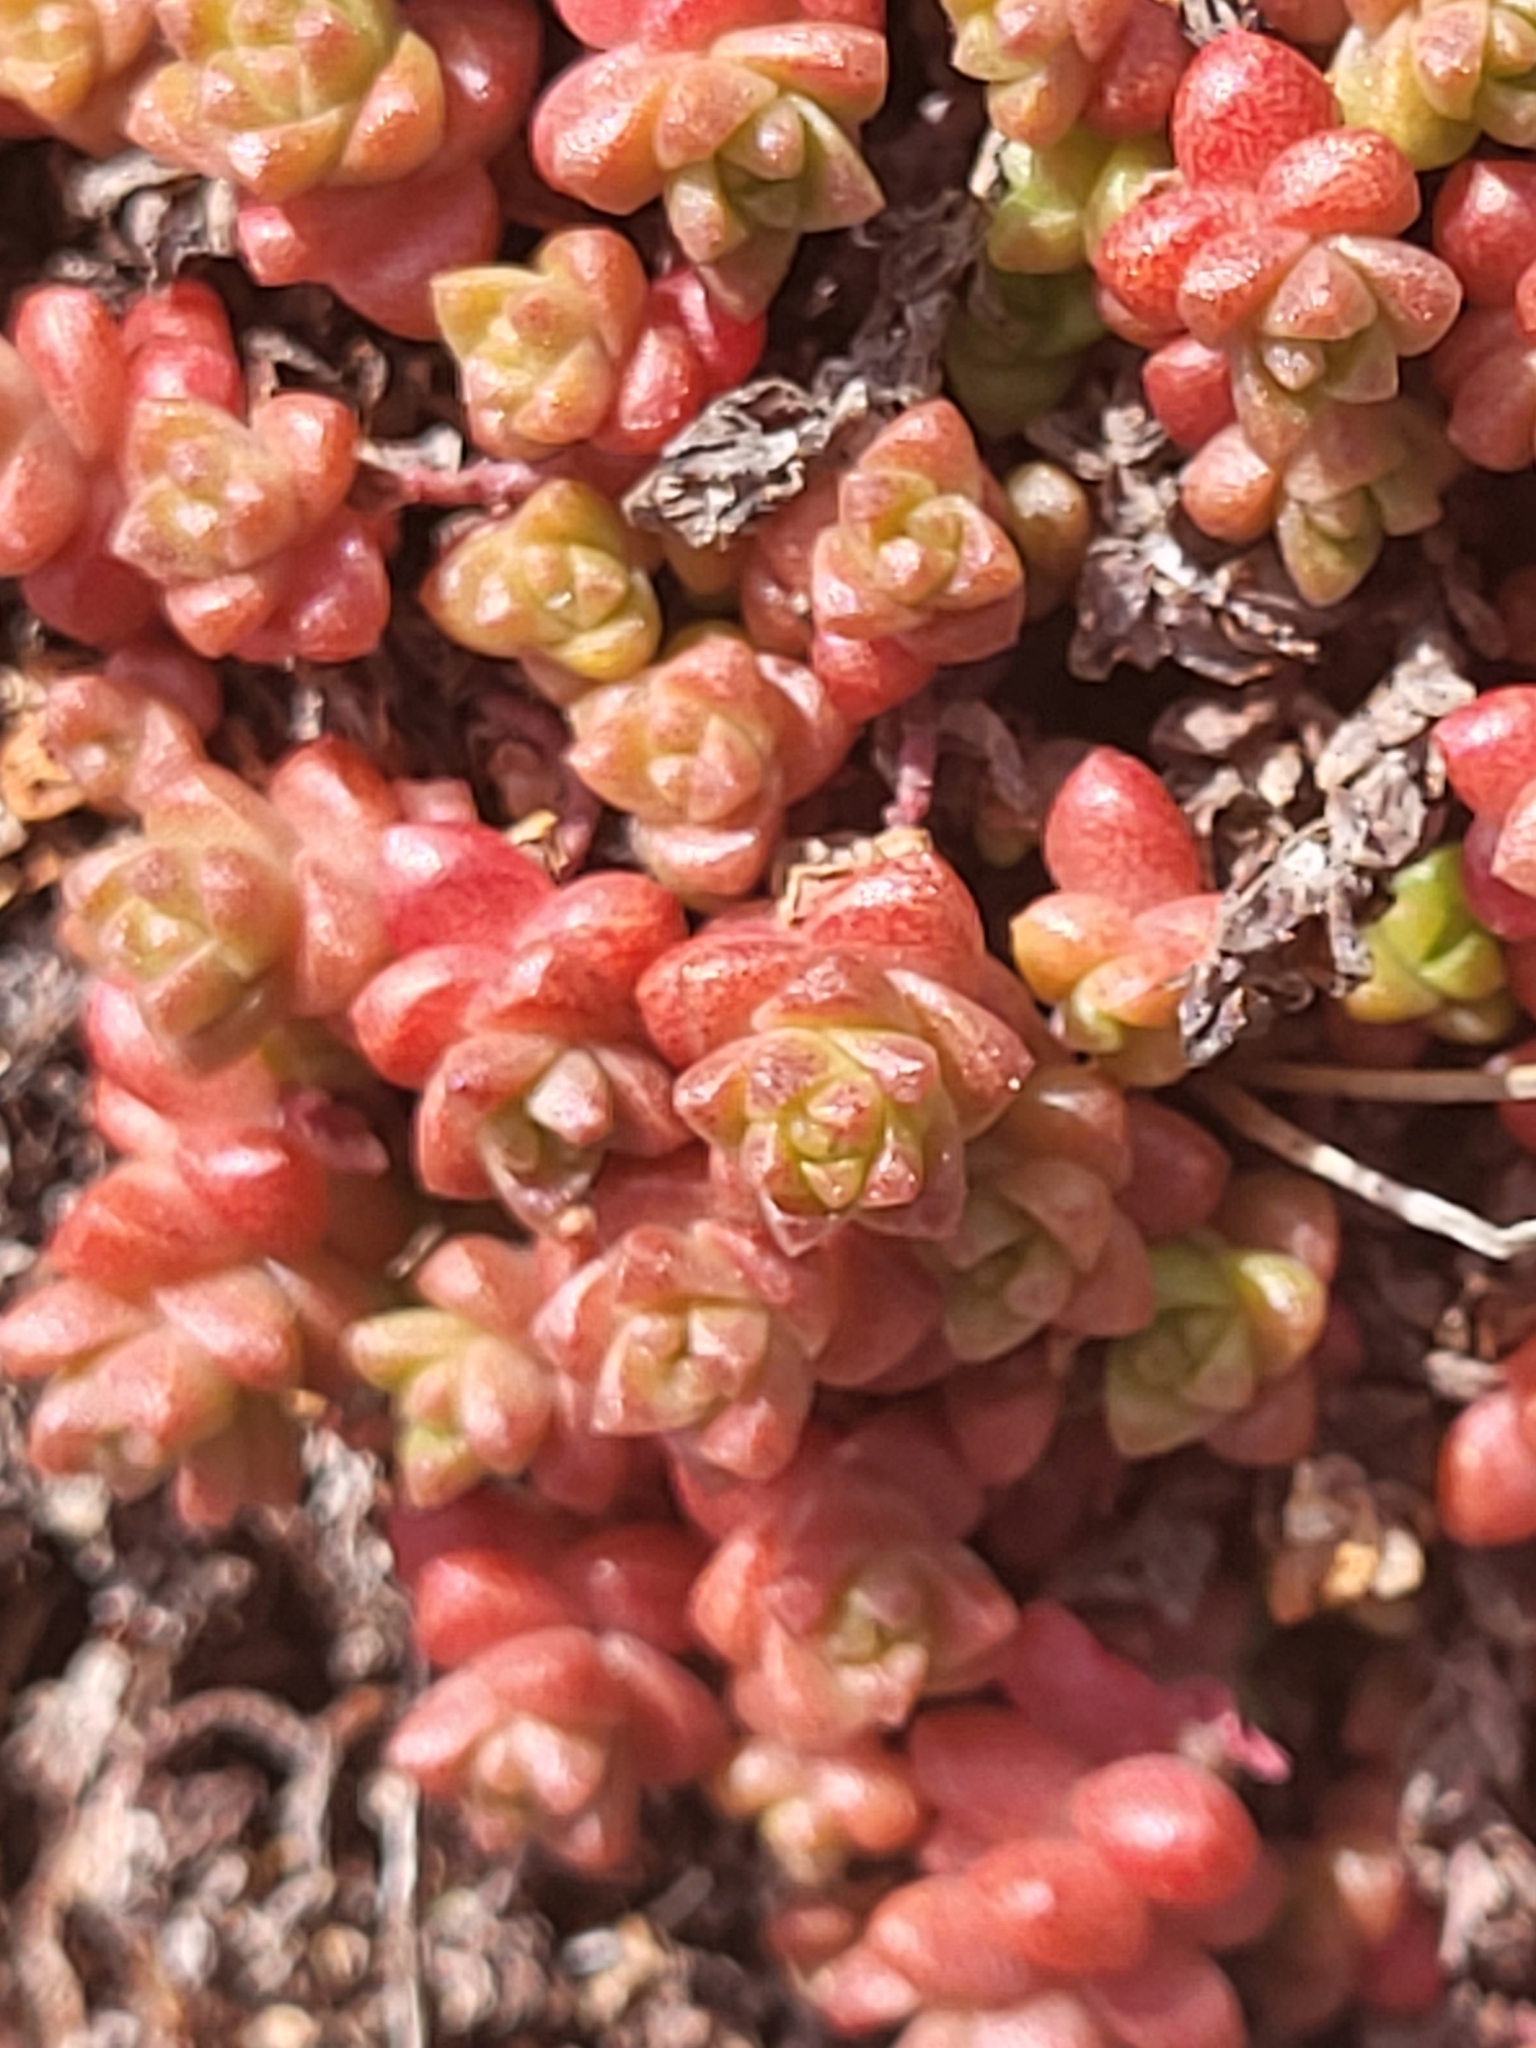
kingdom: Plantae
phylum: Tracheophyta
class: Magnoliopsida
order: Saxifragales
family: Crassulaceae
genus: Sedum
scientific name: Sedum anglicum
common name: English stonecrop
